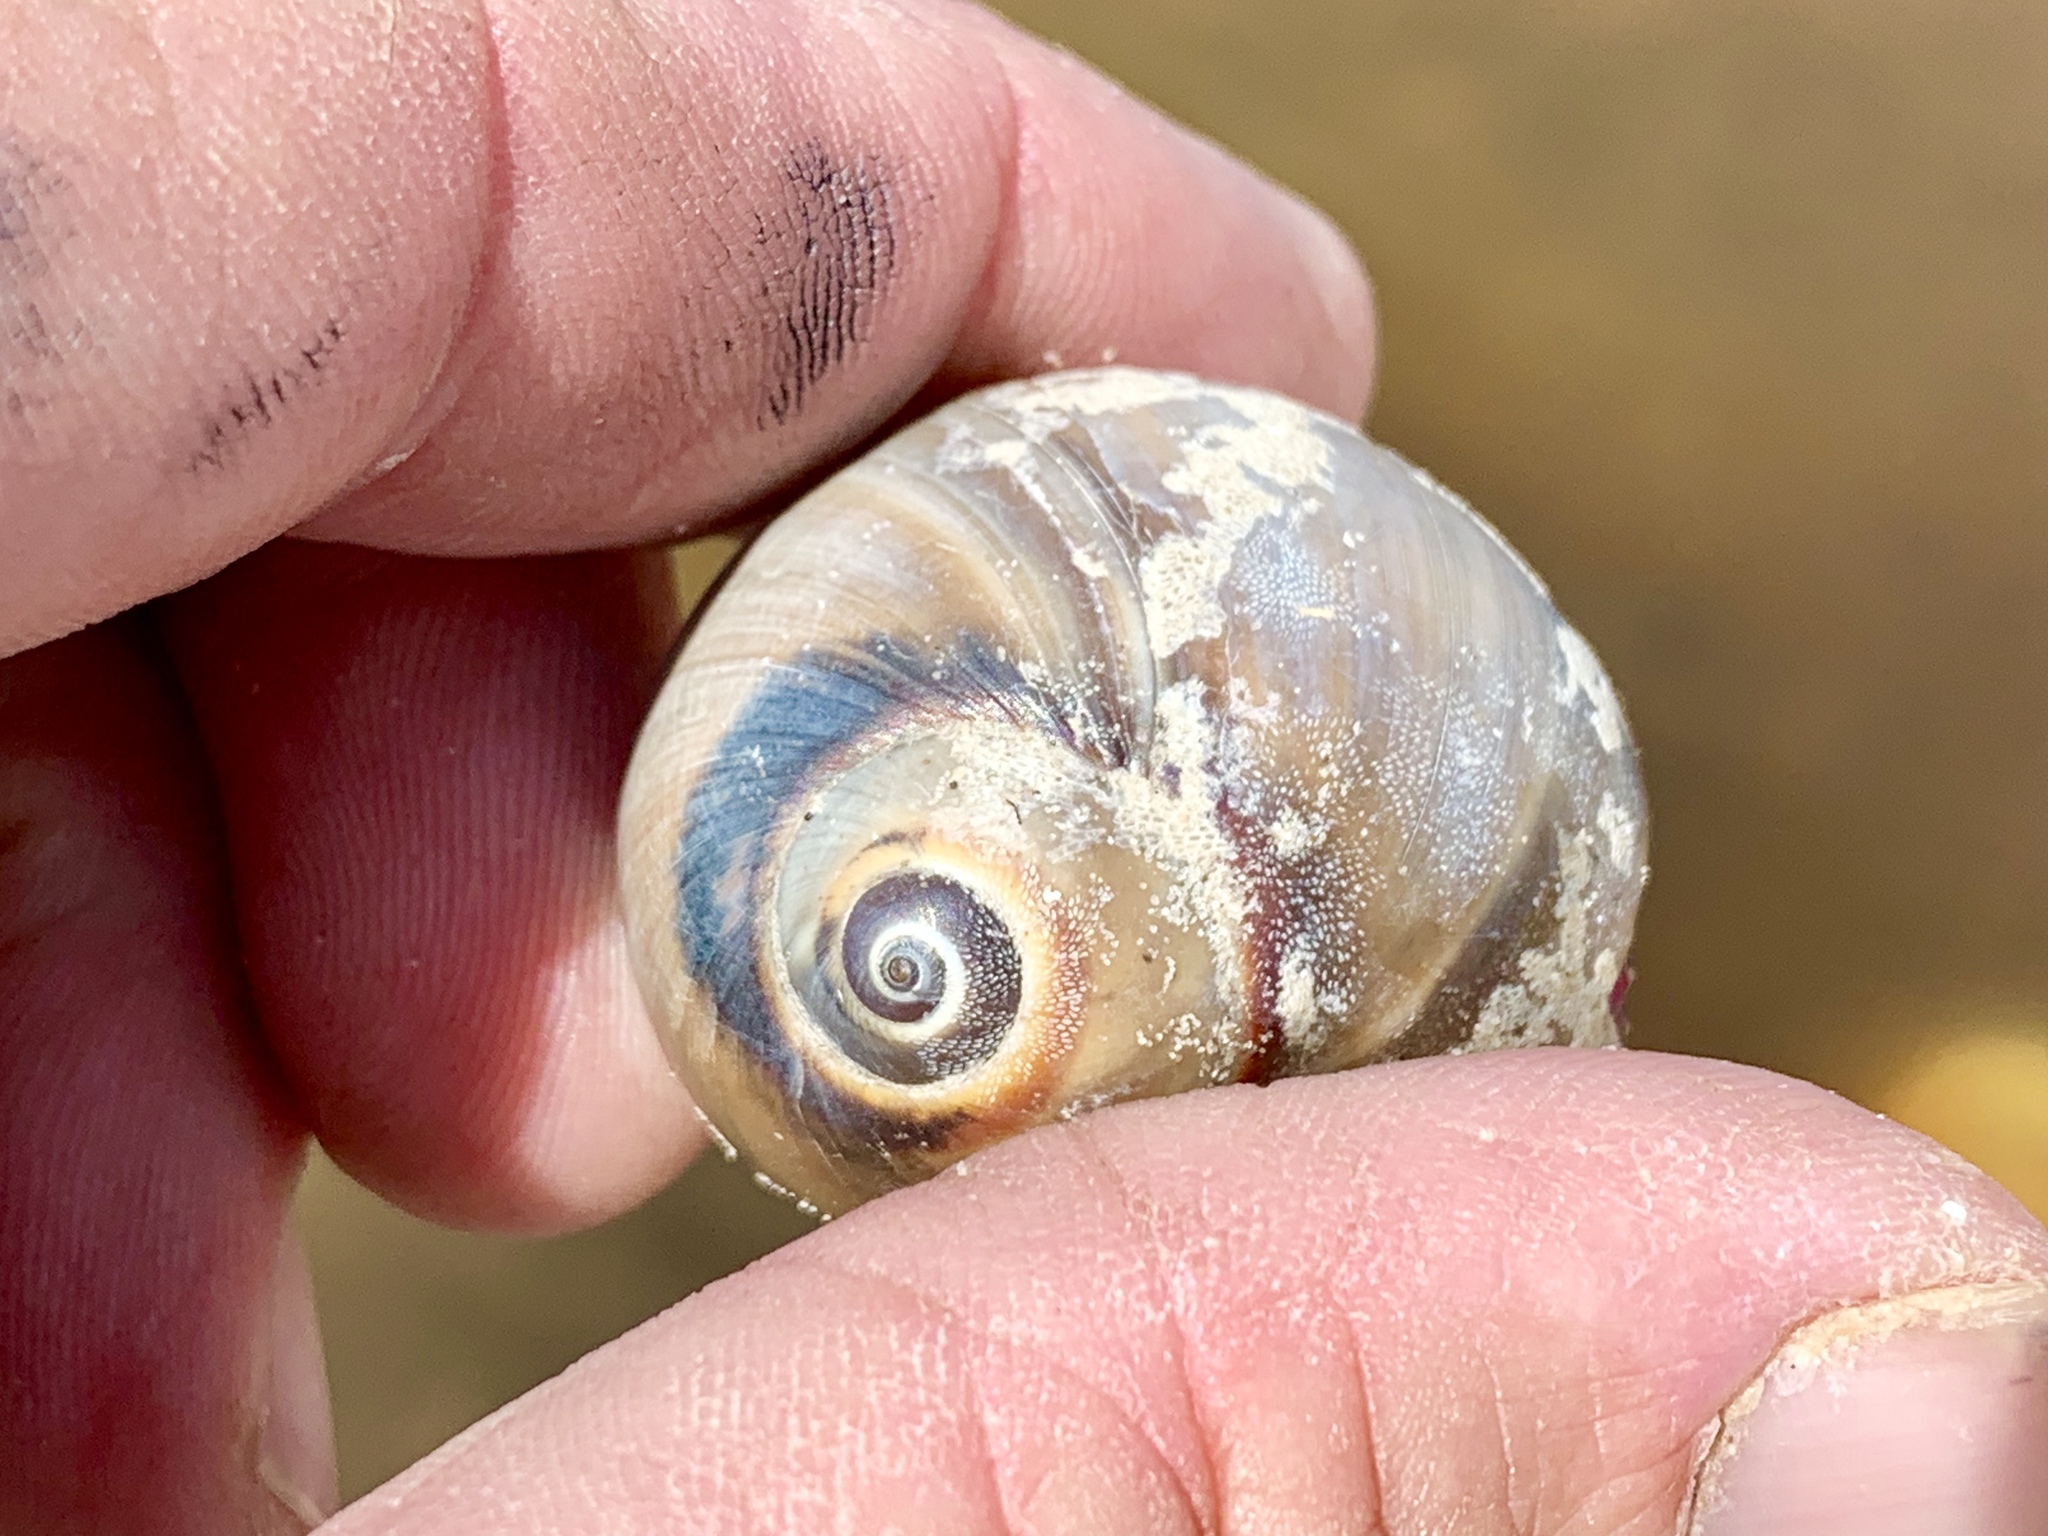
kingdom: Animalia
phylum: Mollusca
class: Gastropoda
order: Littorinimorpha
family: Naticidae
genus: Neverita
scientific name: Neverita delessertiana
